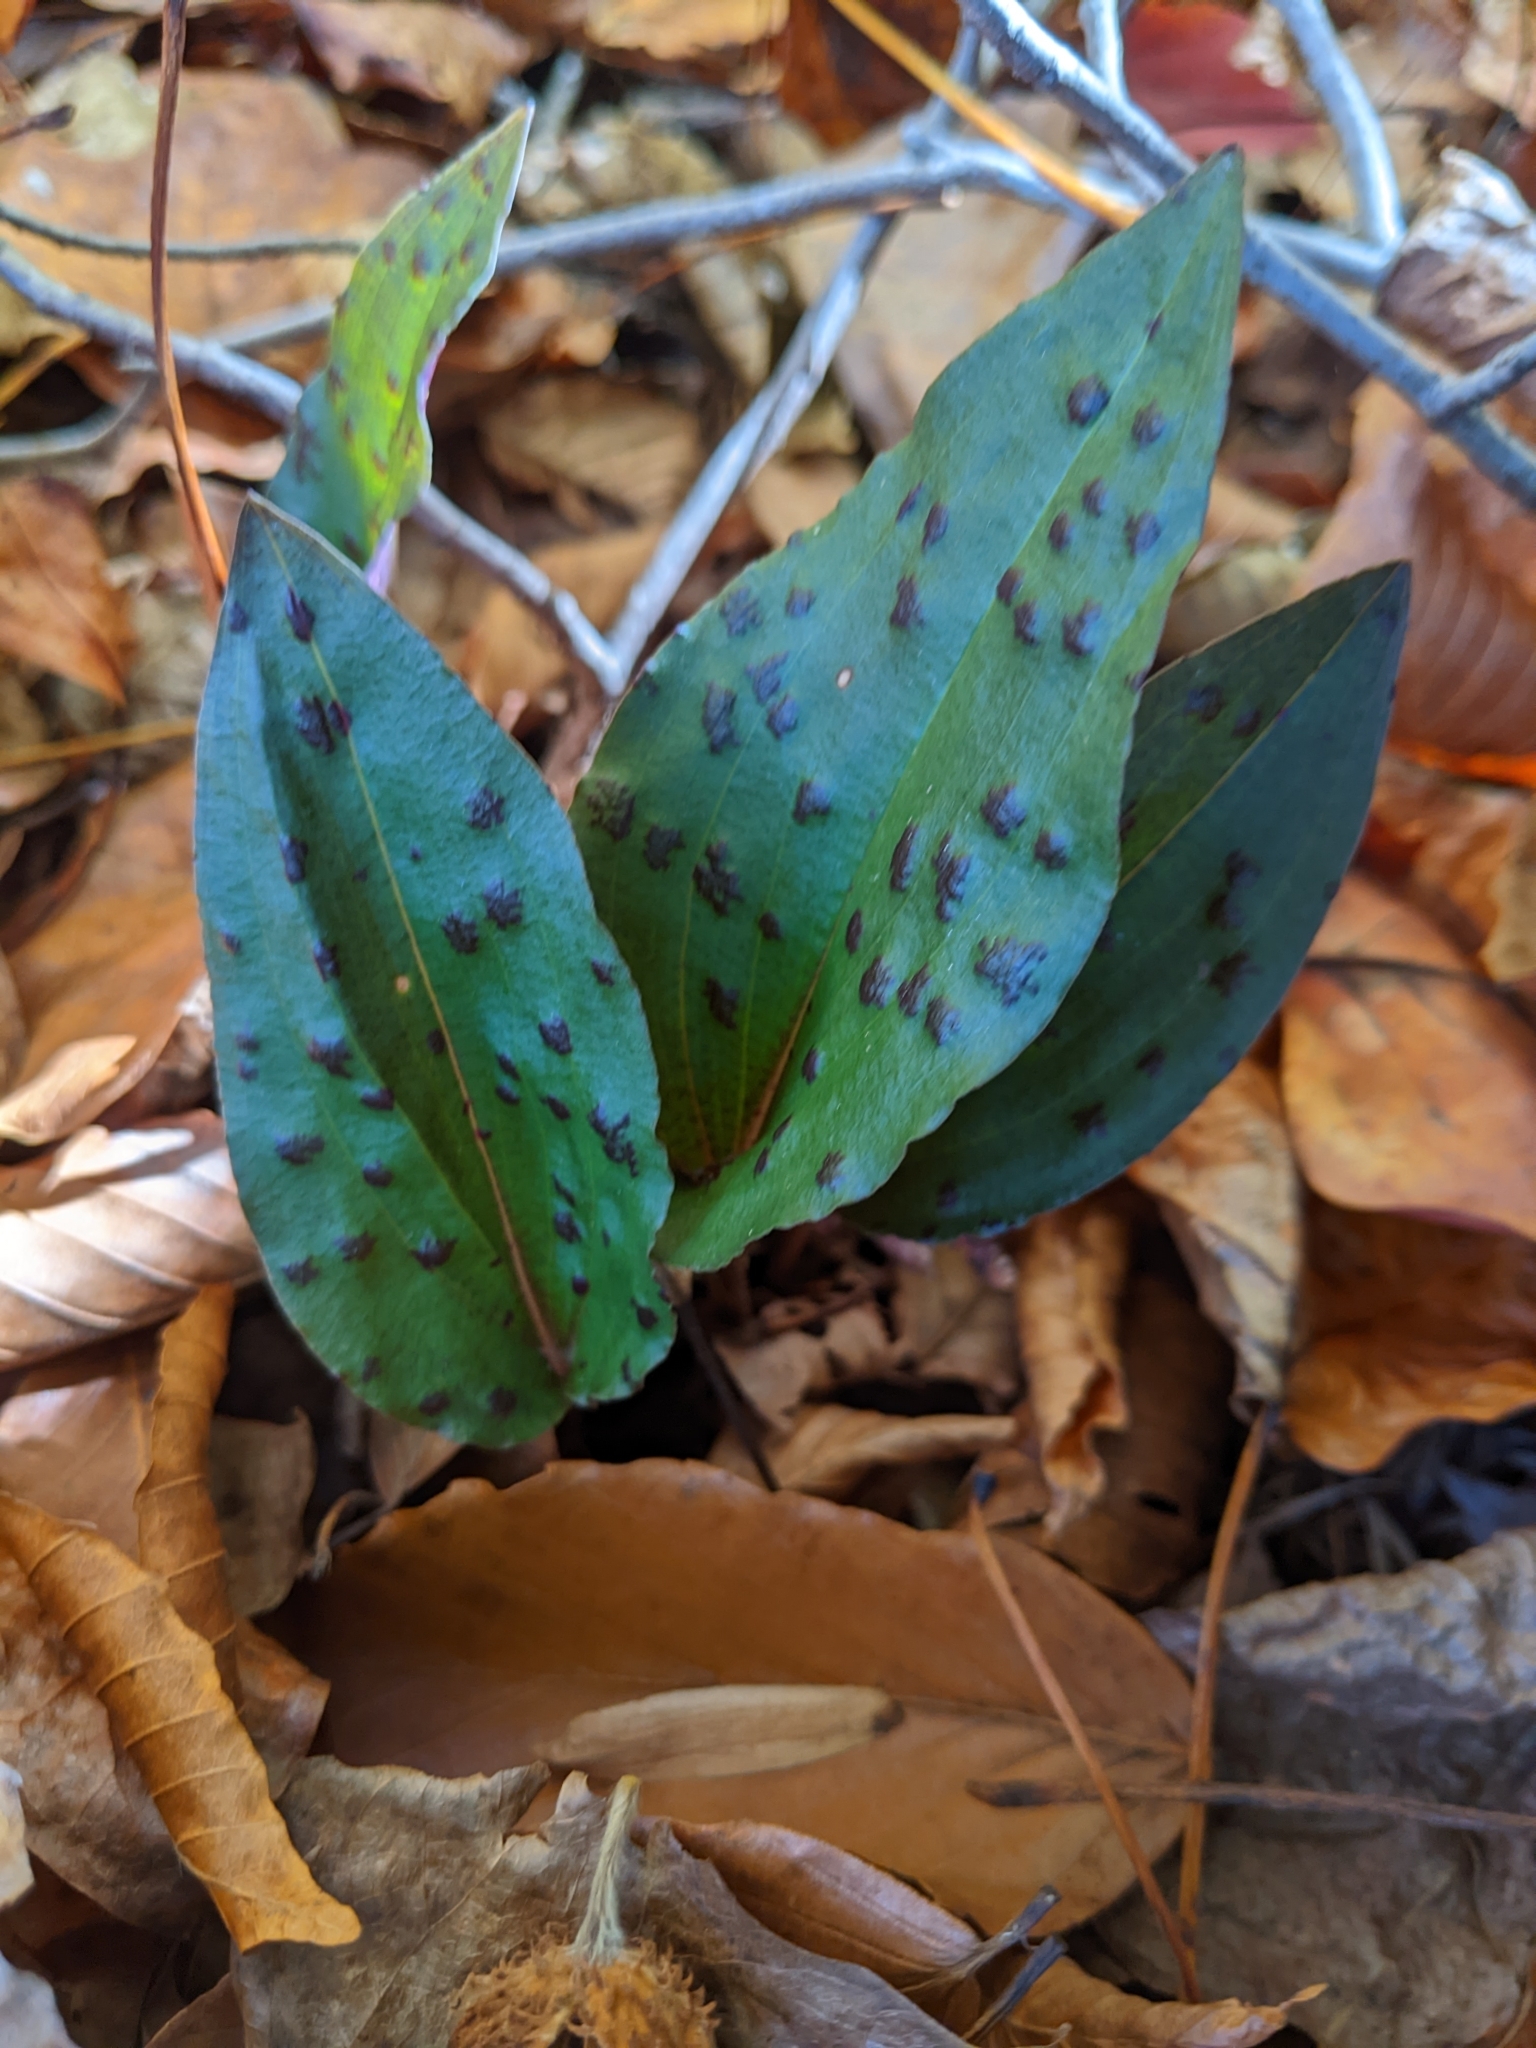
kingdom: Plantae
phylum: Tracheophyta
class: Liliopsida
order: Asparagales
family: Orchidaceae
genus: Tipularia
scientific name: Tipularia discolor
